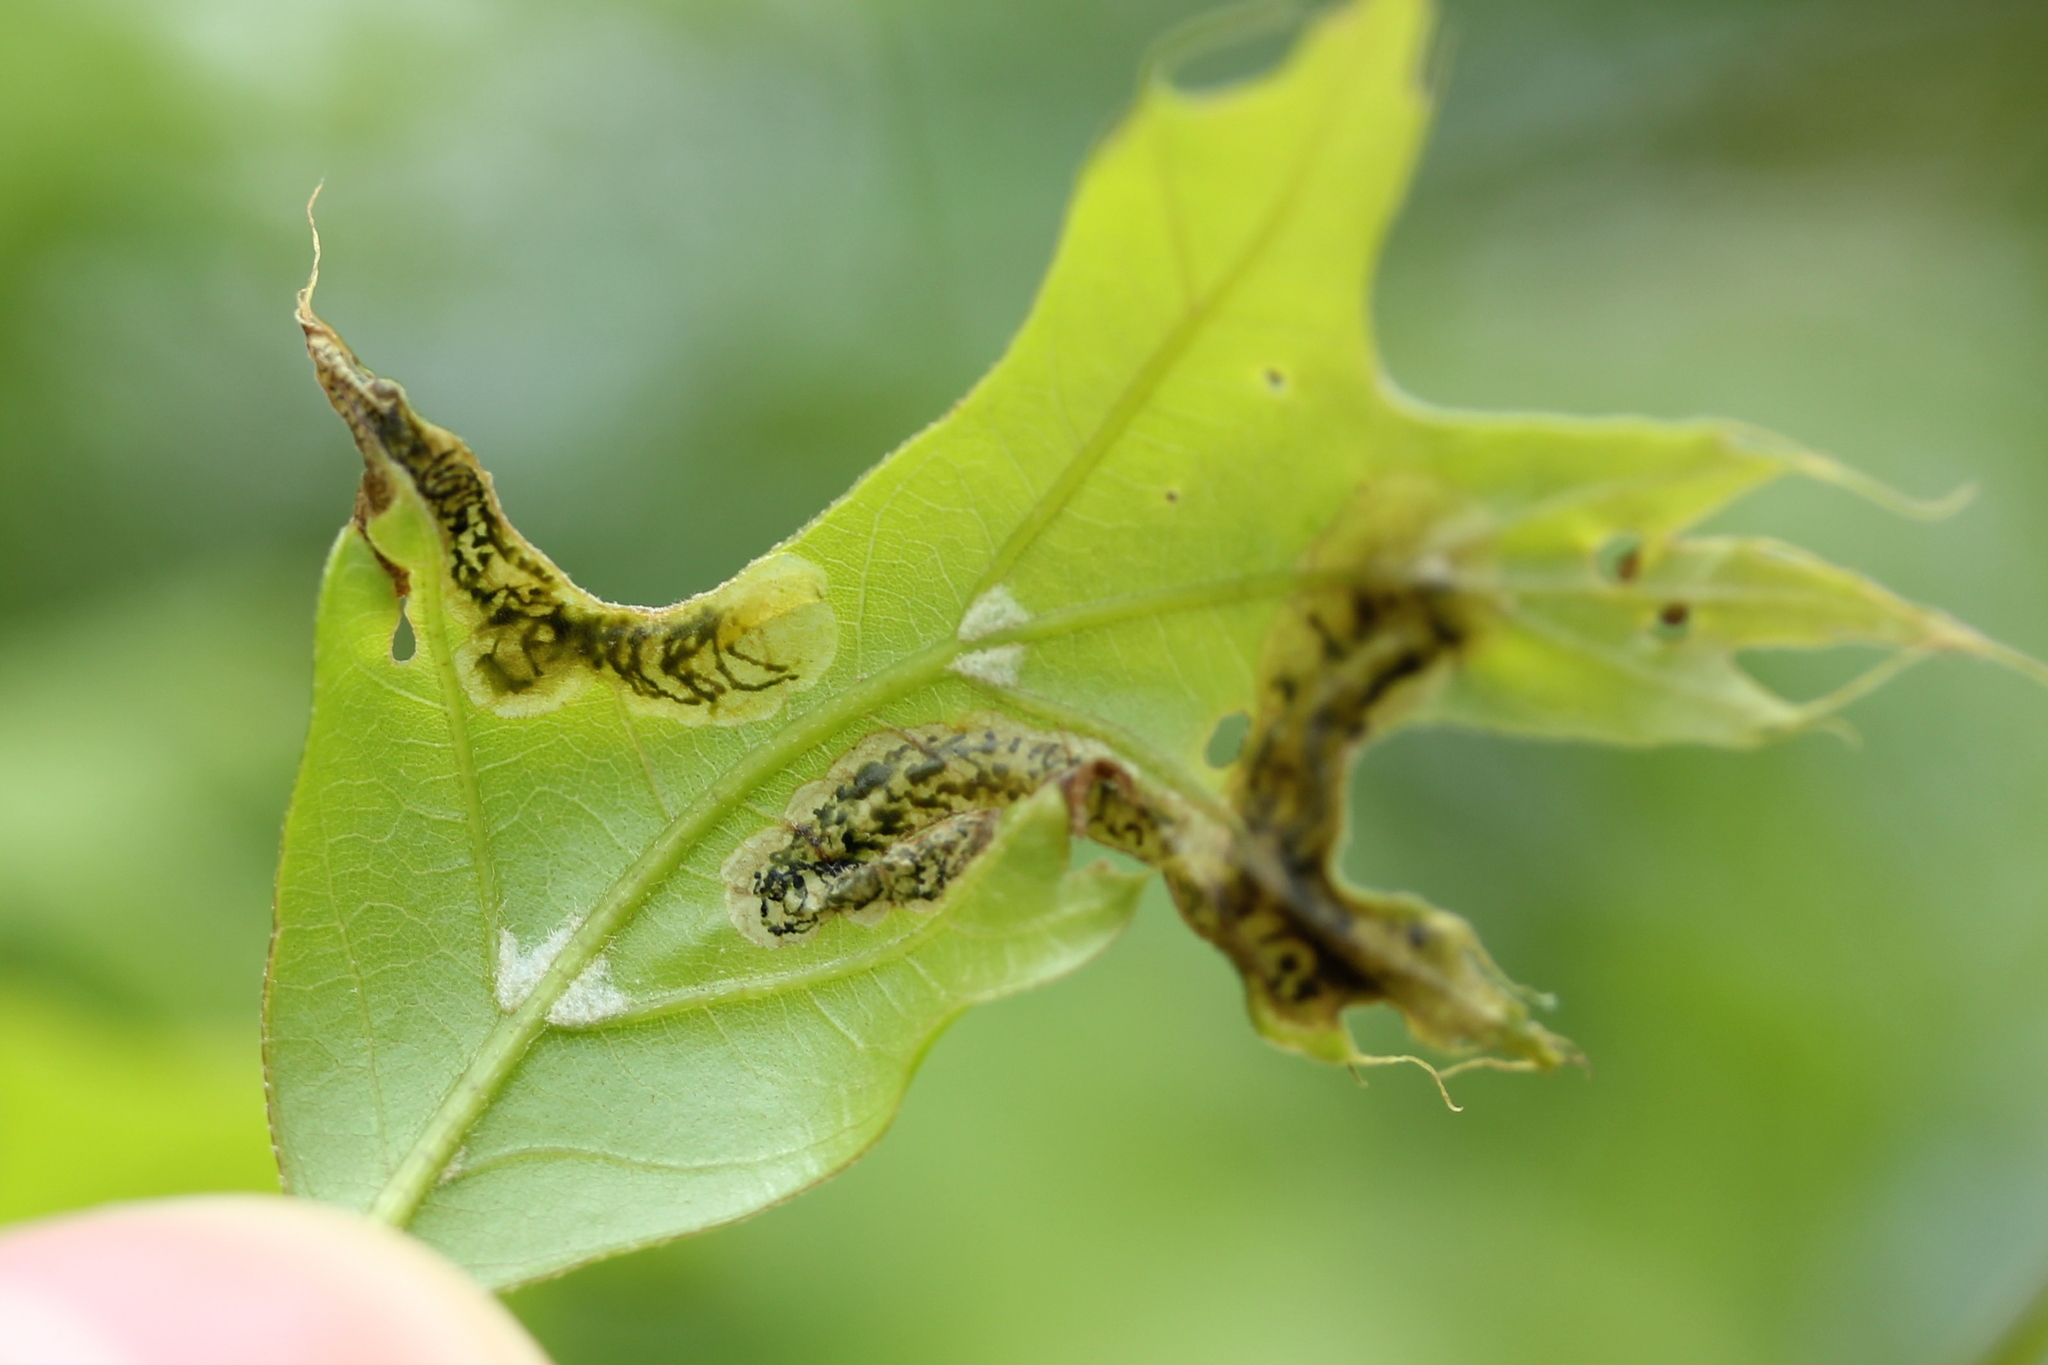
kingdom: Animalia
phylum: Arthropoda
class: Insecta
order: Diptera
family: Agromyzidae
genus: Japanagromyza
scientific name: Japanagromyza viridula
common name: Oak shothole leafminer
